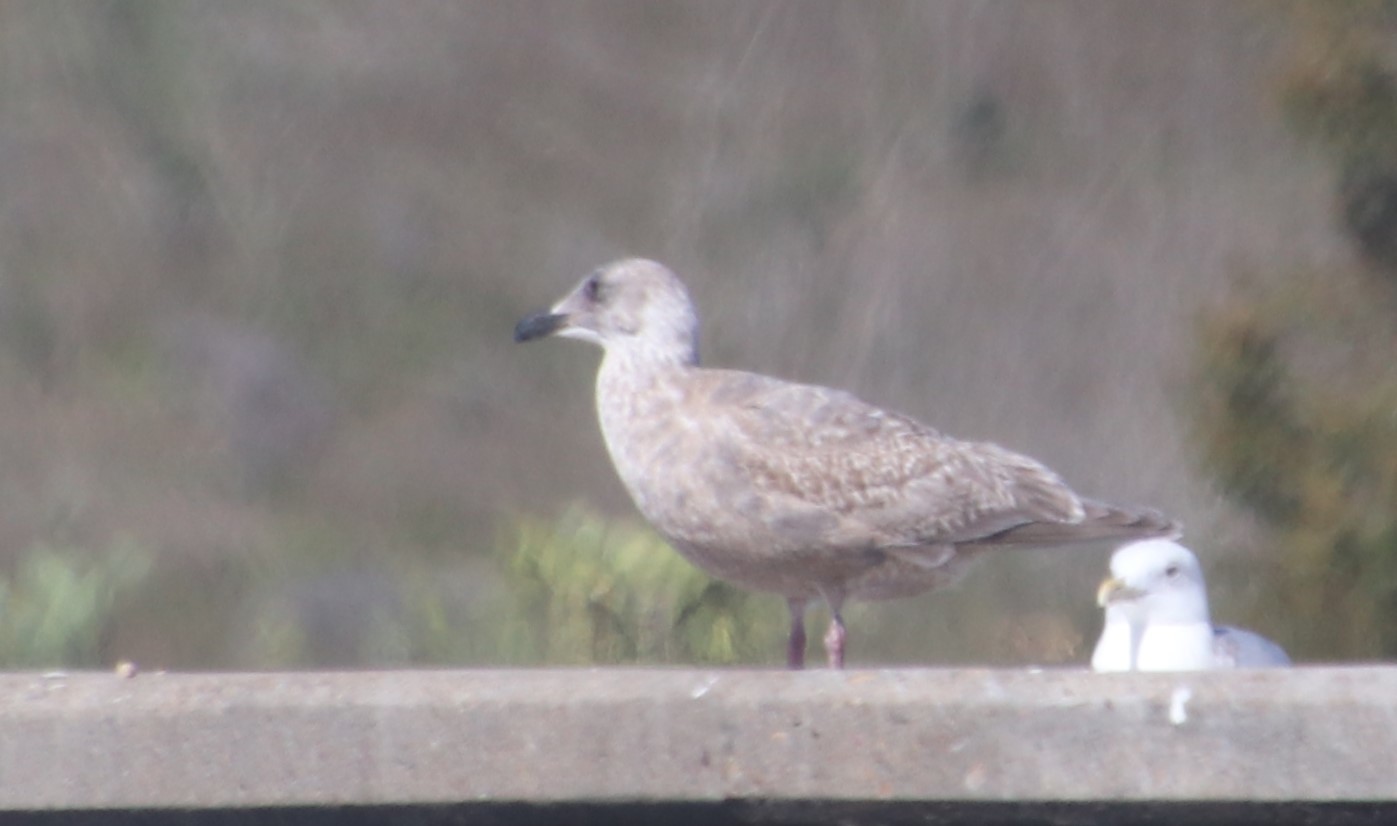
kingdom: Animalia
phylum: Chordata
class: Aves
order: Charadriiformes
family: Laridae
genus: Larus
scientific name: Larus
